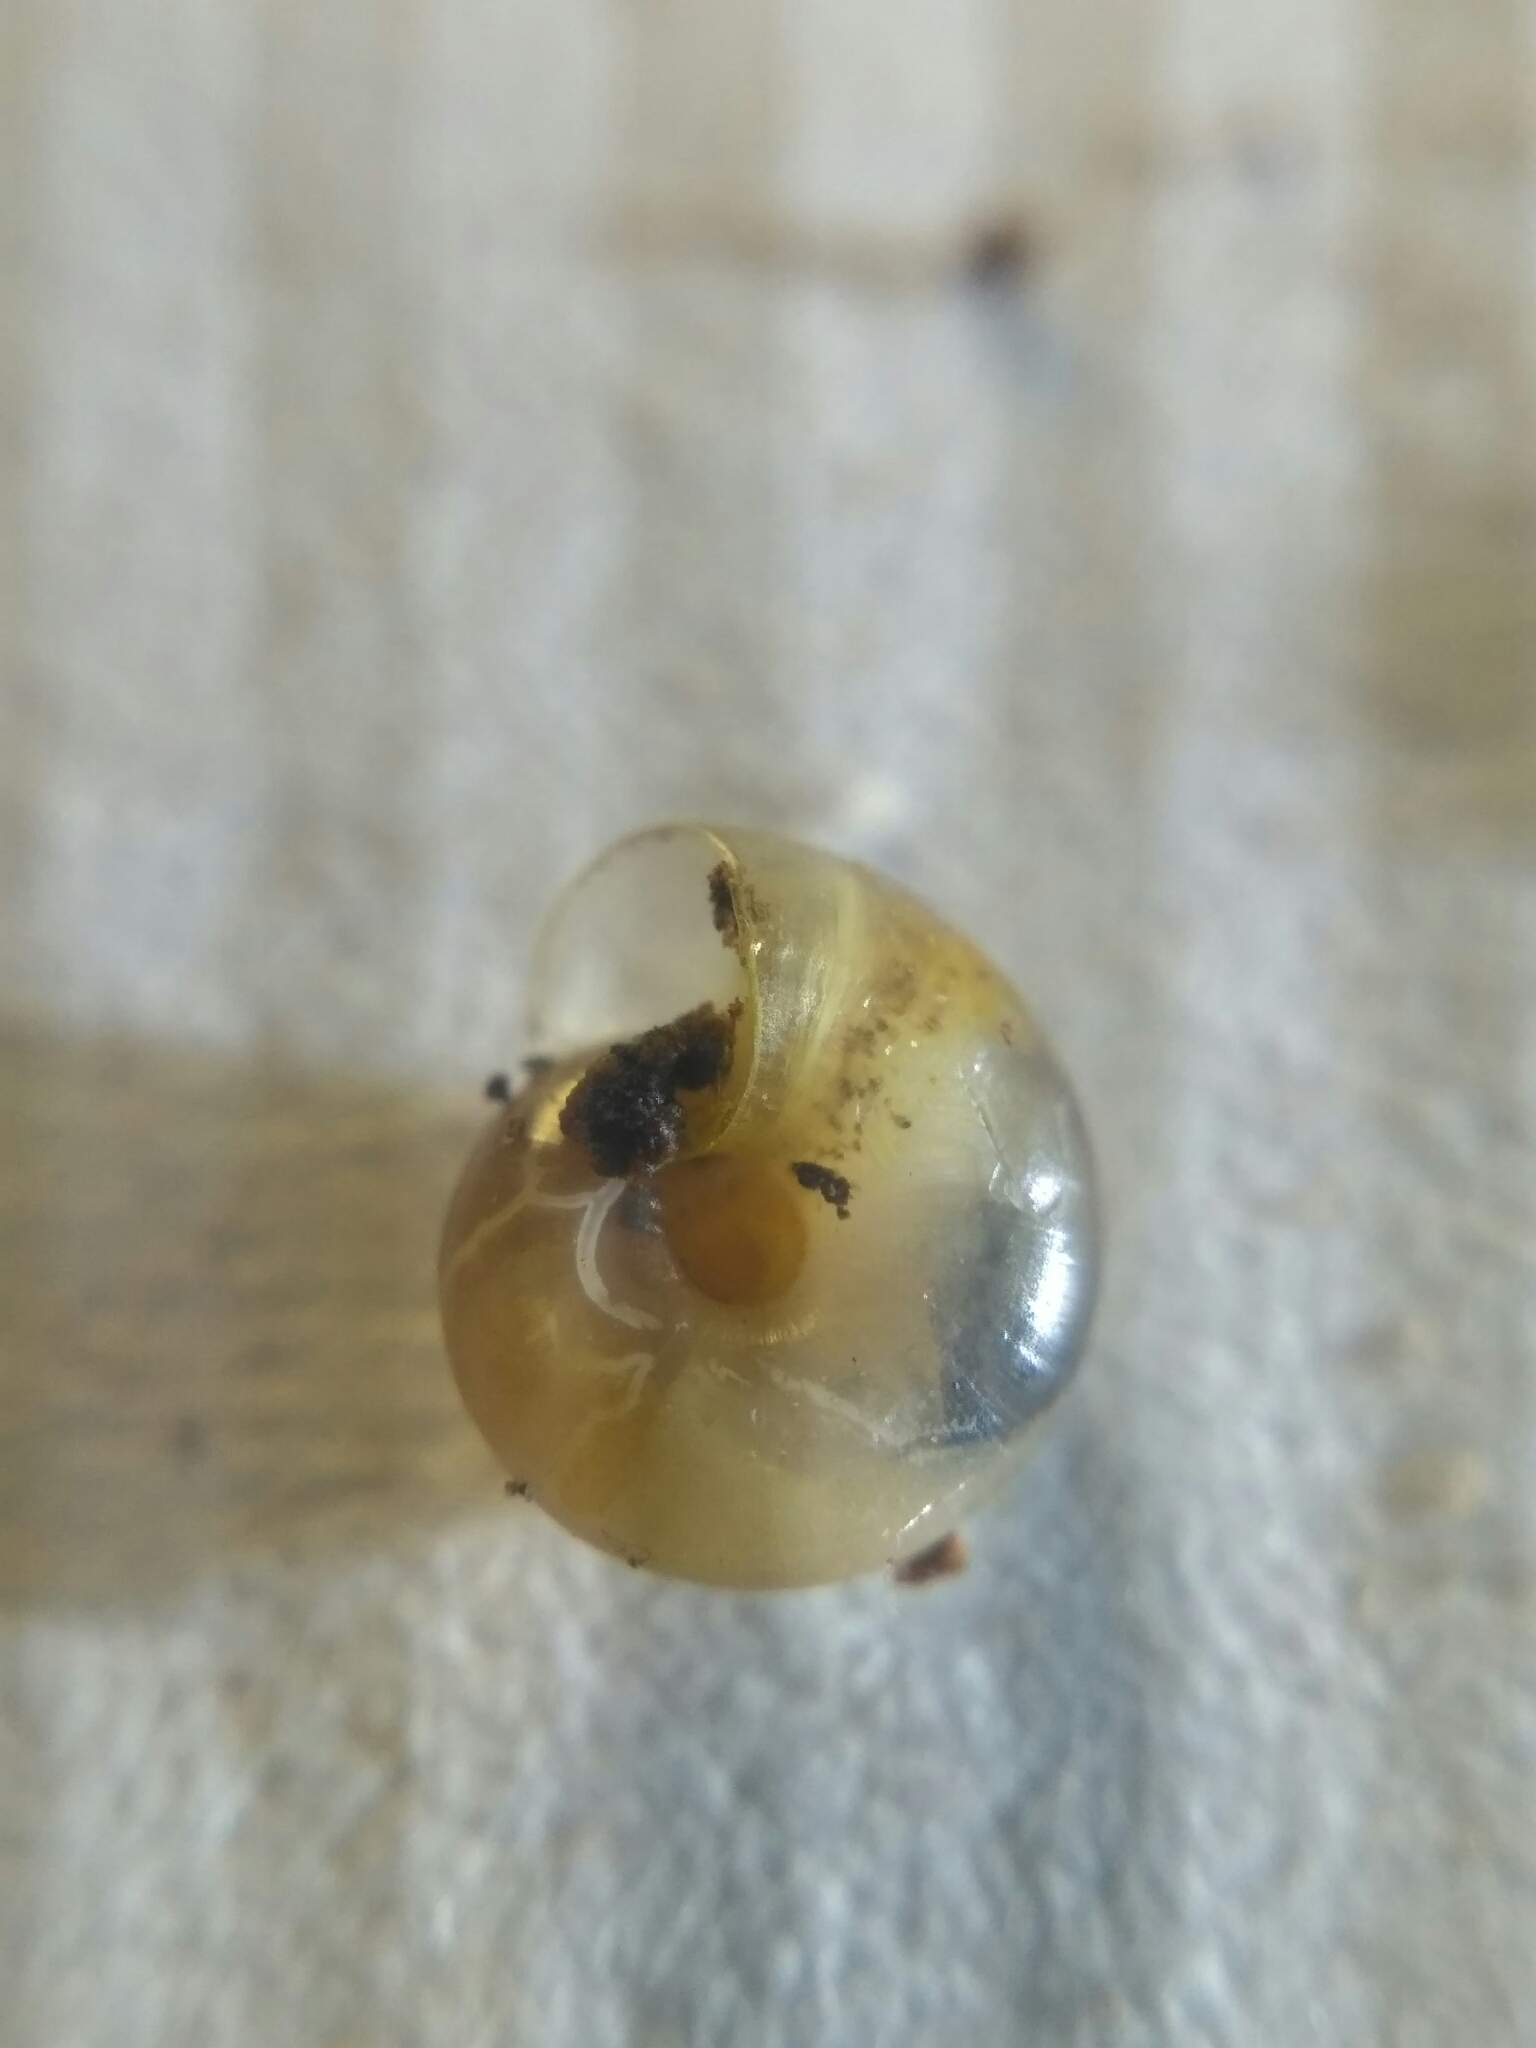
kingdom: Animalia
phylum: Mollusca
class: Gastropoda
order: Stylommatophora
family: Gastrodontidae
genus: Aegopinella
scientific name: Aegopinella pura
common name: Clear glass snail
